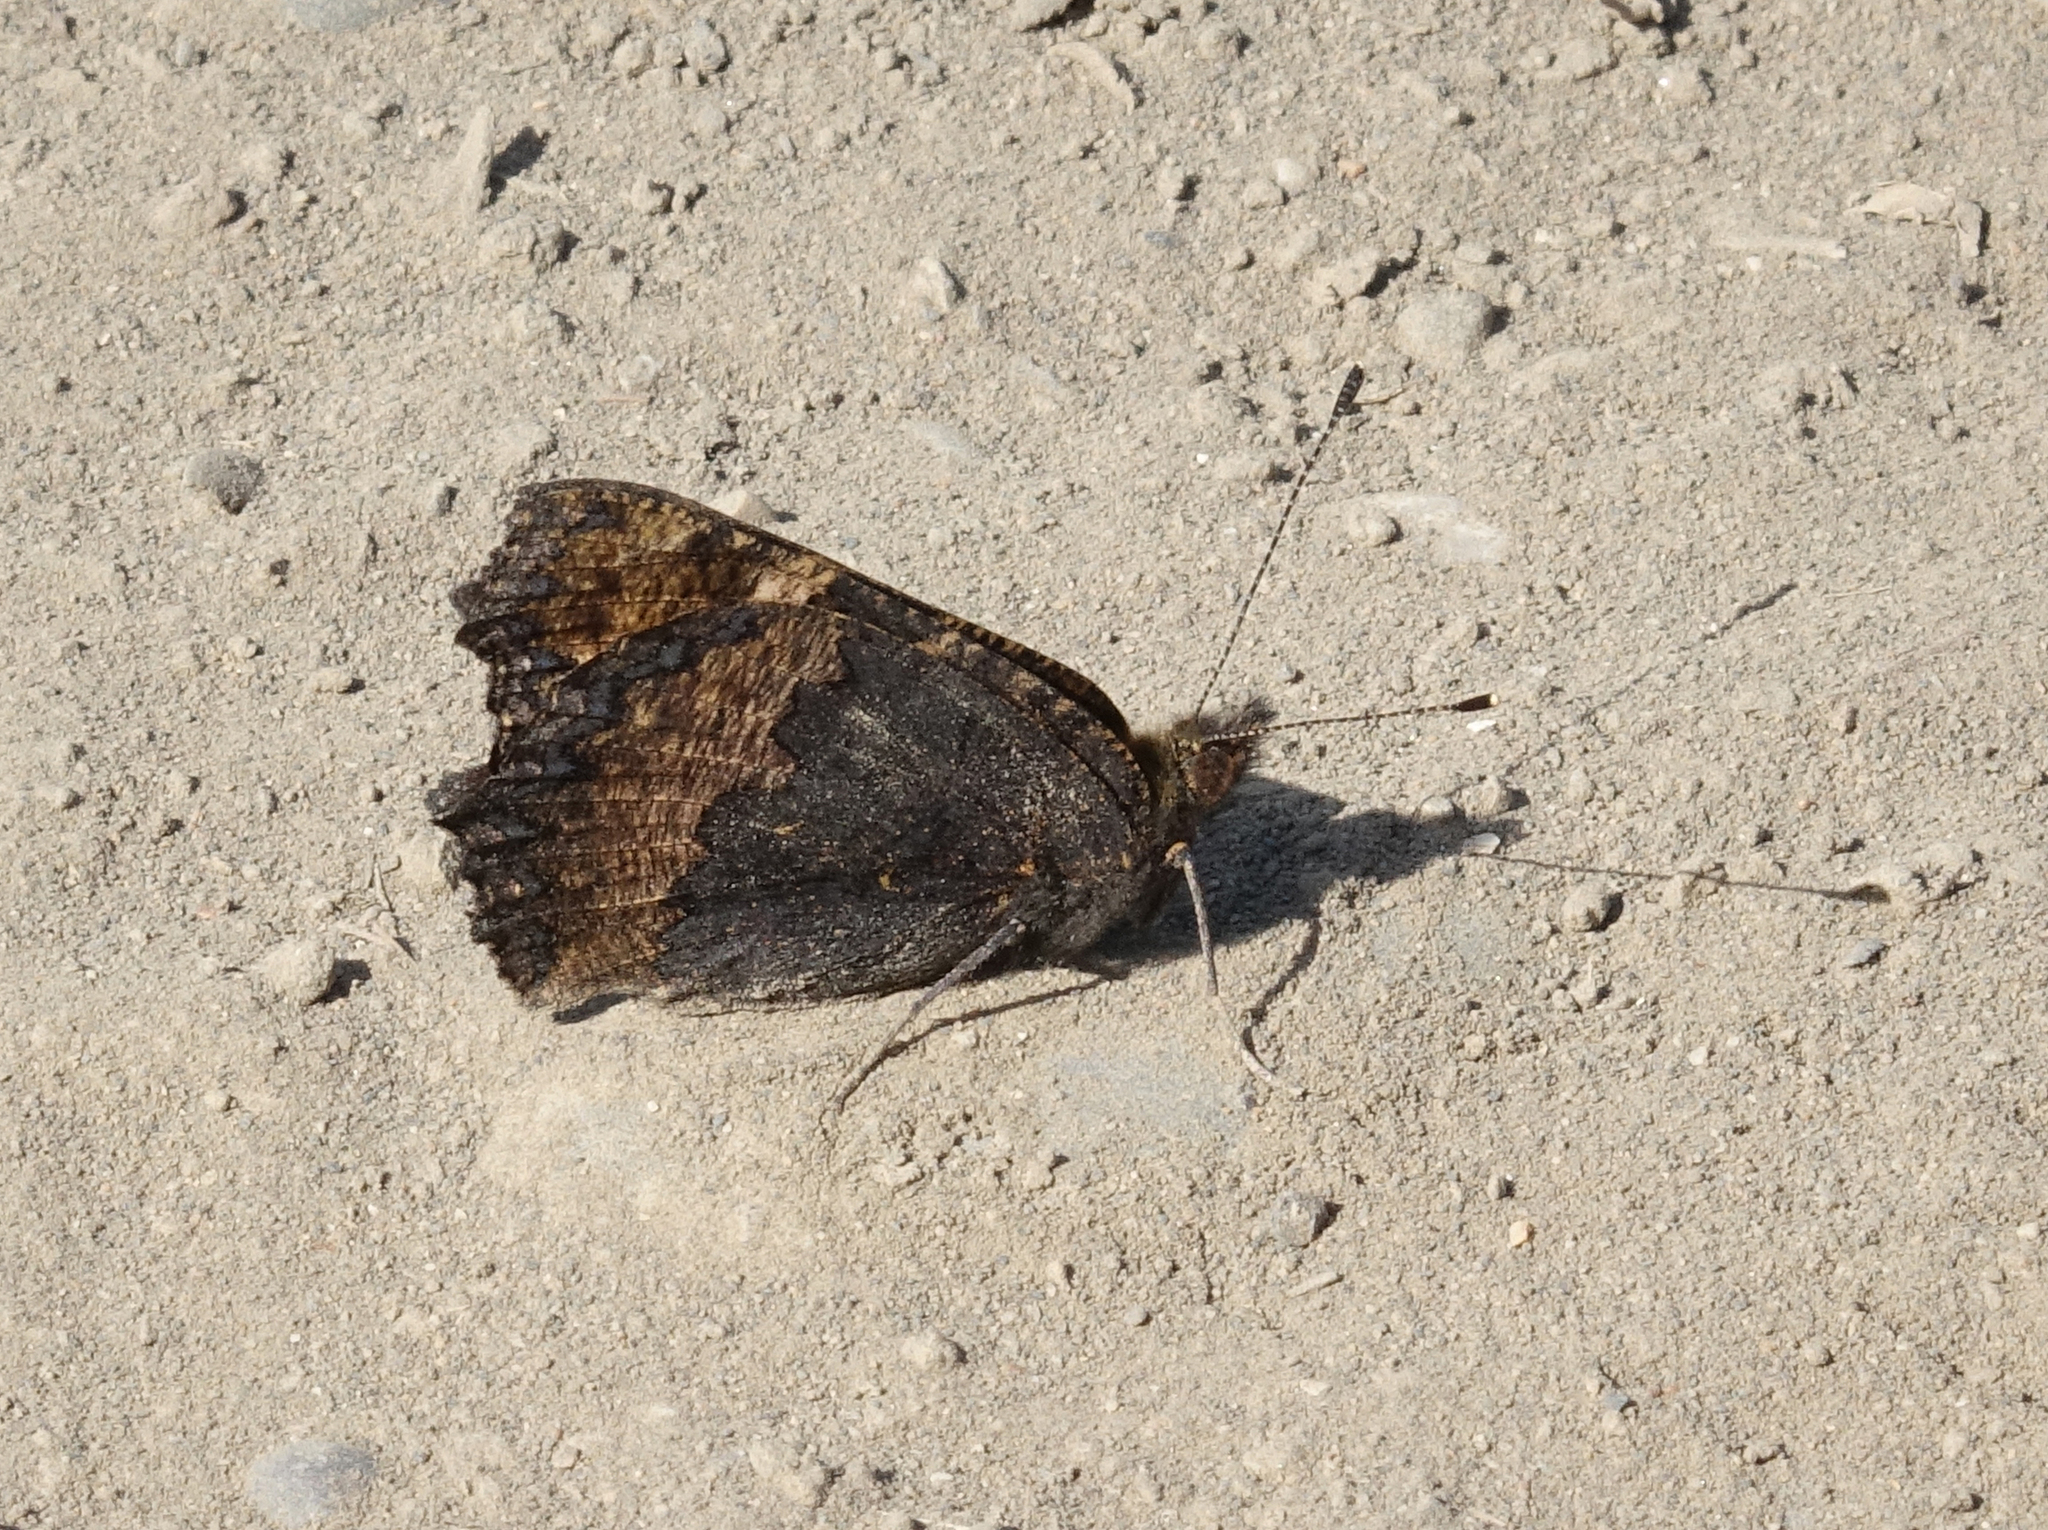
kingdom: Animalia
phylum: Arthropoda
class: Insecta
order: Lepidoptera
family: Nymphalidae
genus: Aglais
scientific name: Aglais urticae
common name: Small tortoiseshell
